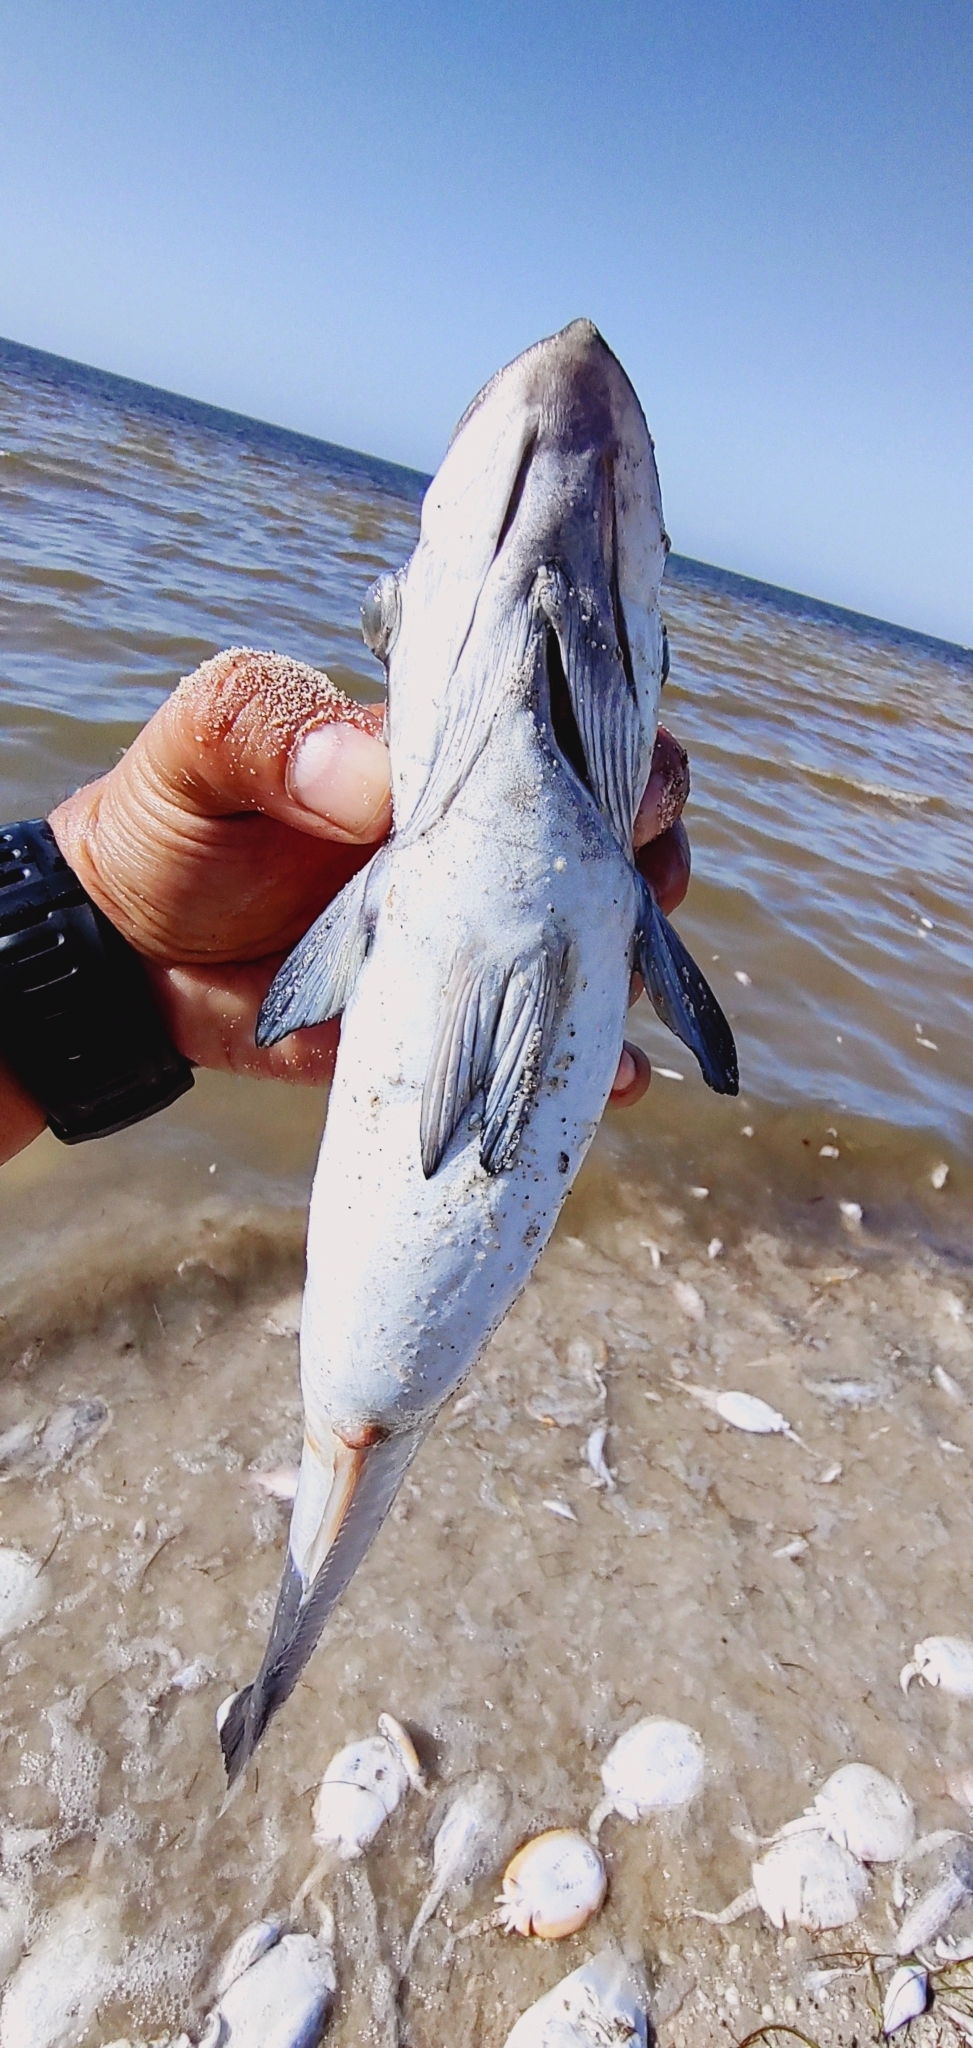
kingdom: Animalia
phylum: Chordata
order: Perciformes
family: Echeneidae
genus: Echeneis
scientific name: Echeneis naucrates
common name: Sharksucker
